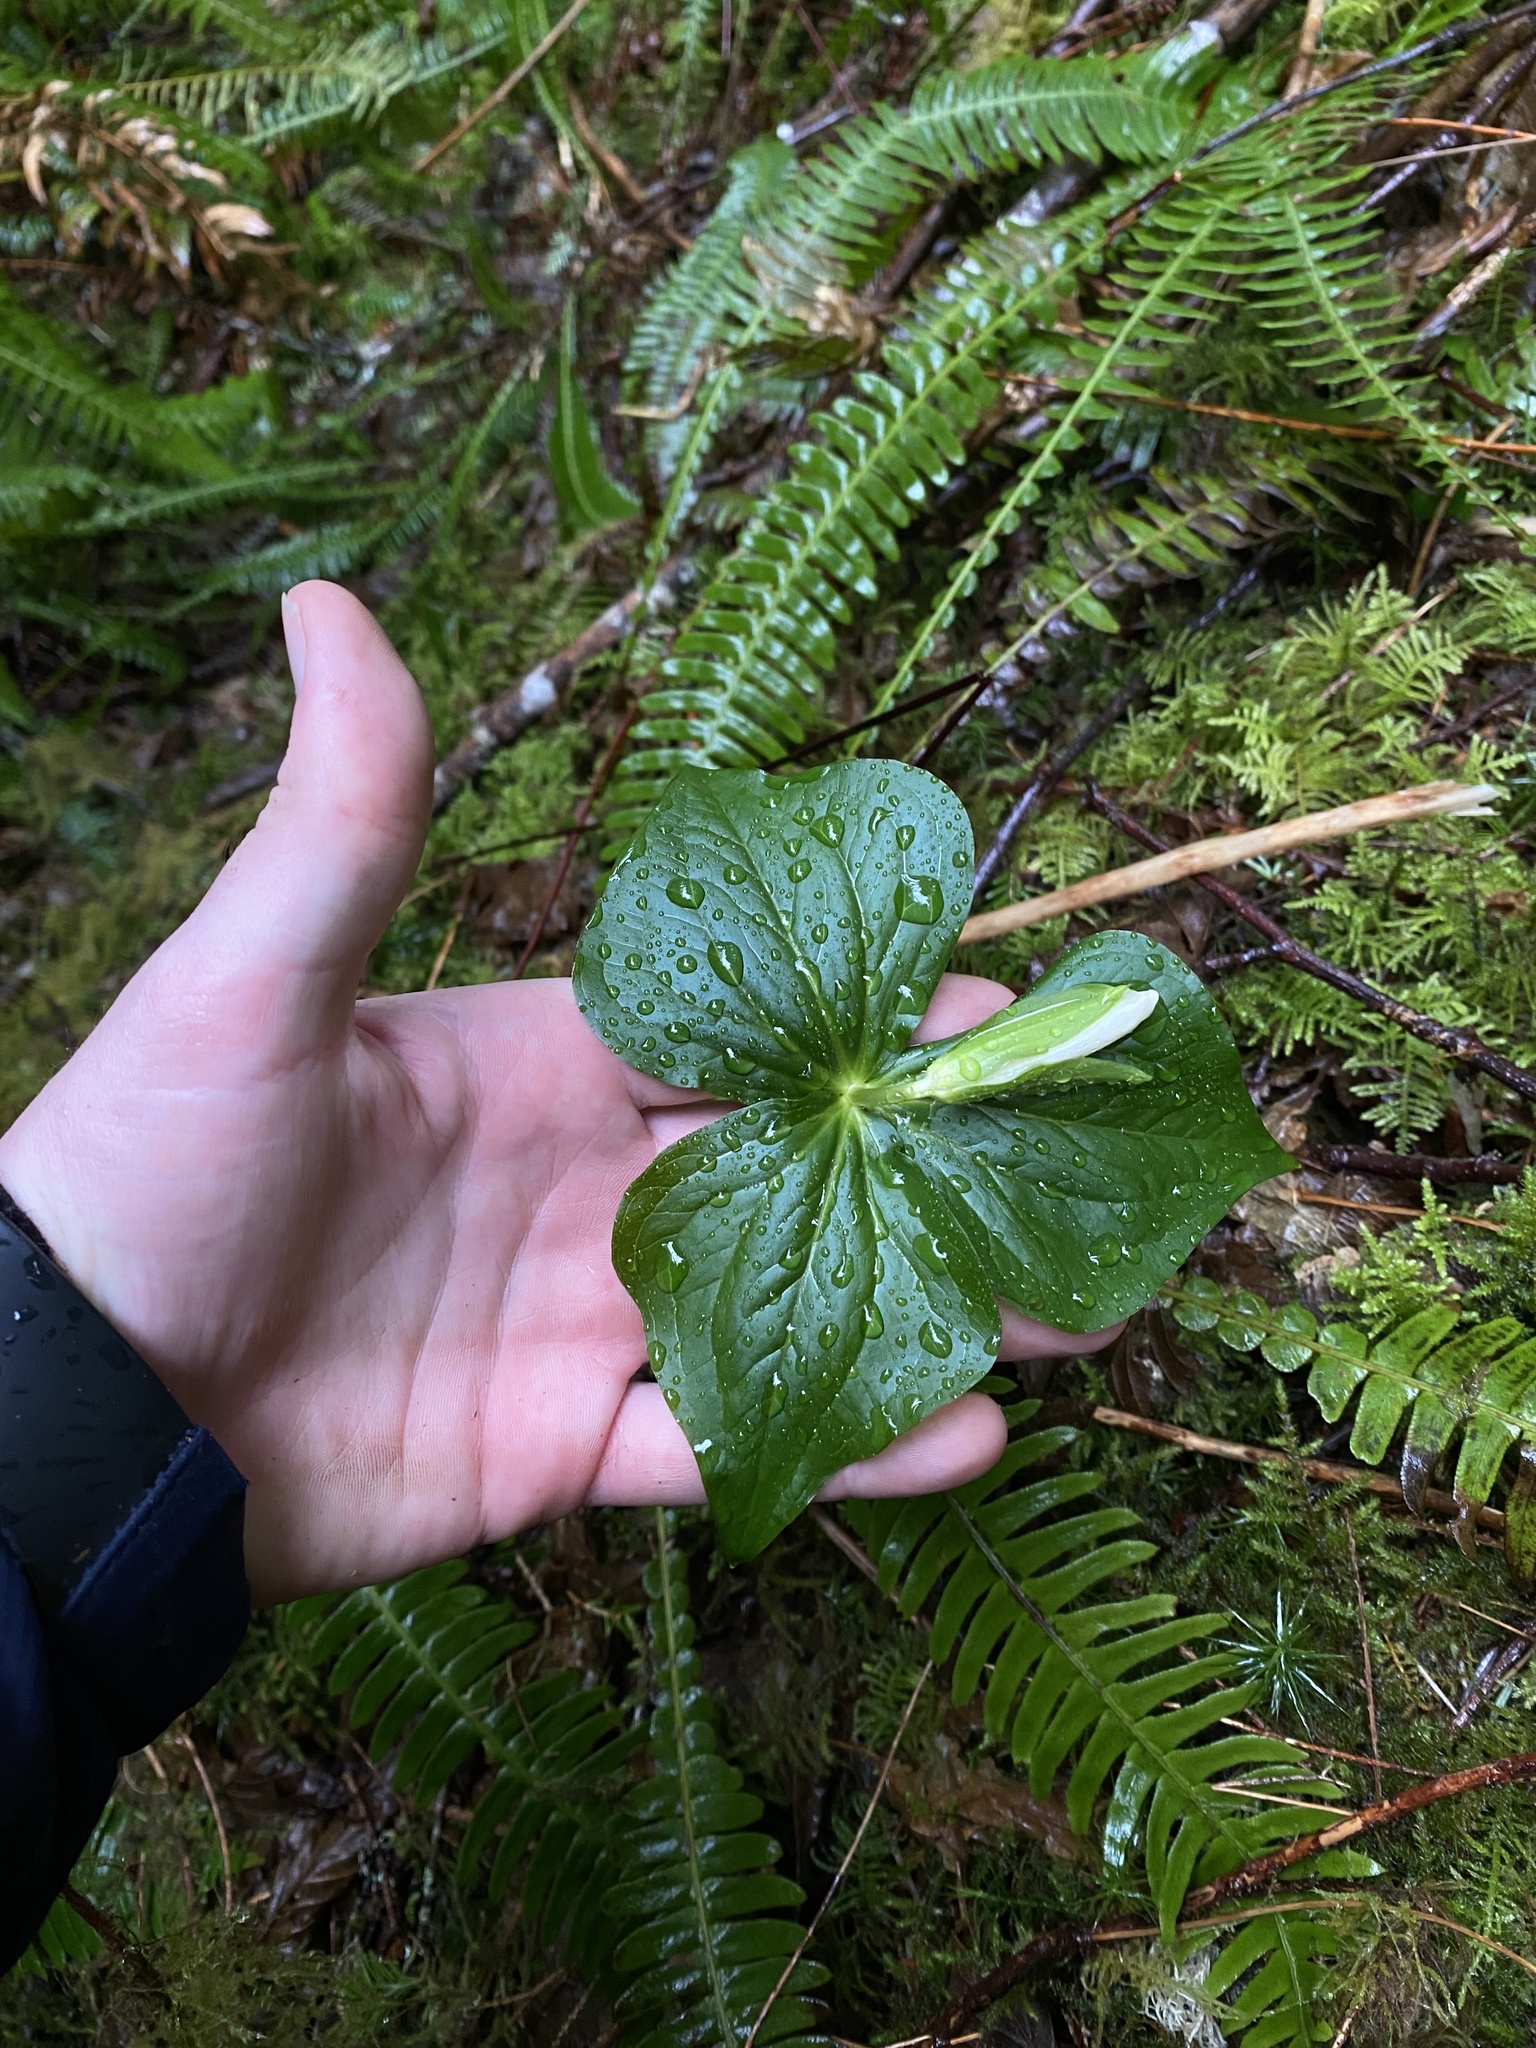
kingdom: Plantae
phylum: Tracheophyta
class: Liliopsida
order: Liliales
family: Melanthiaceae
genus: Trillium
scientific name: Trillium ovatum
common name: Pacific trillium
